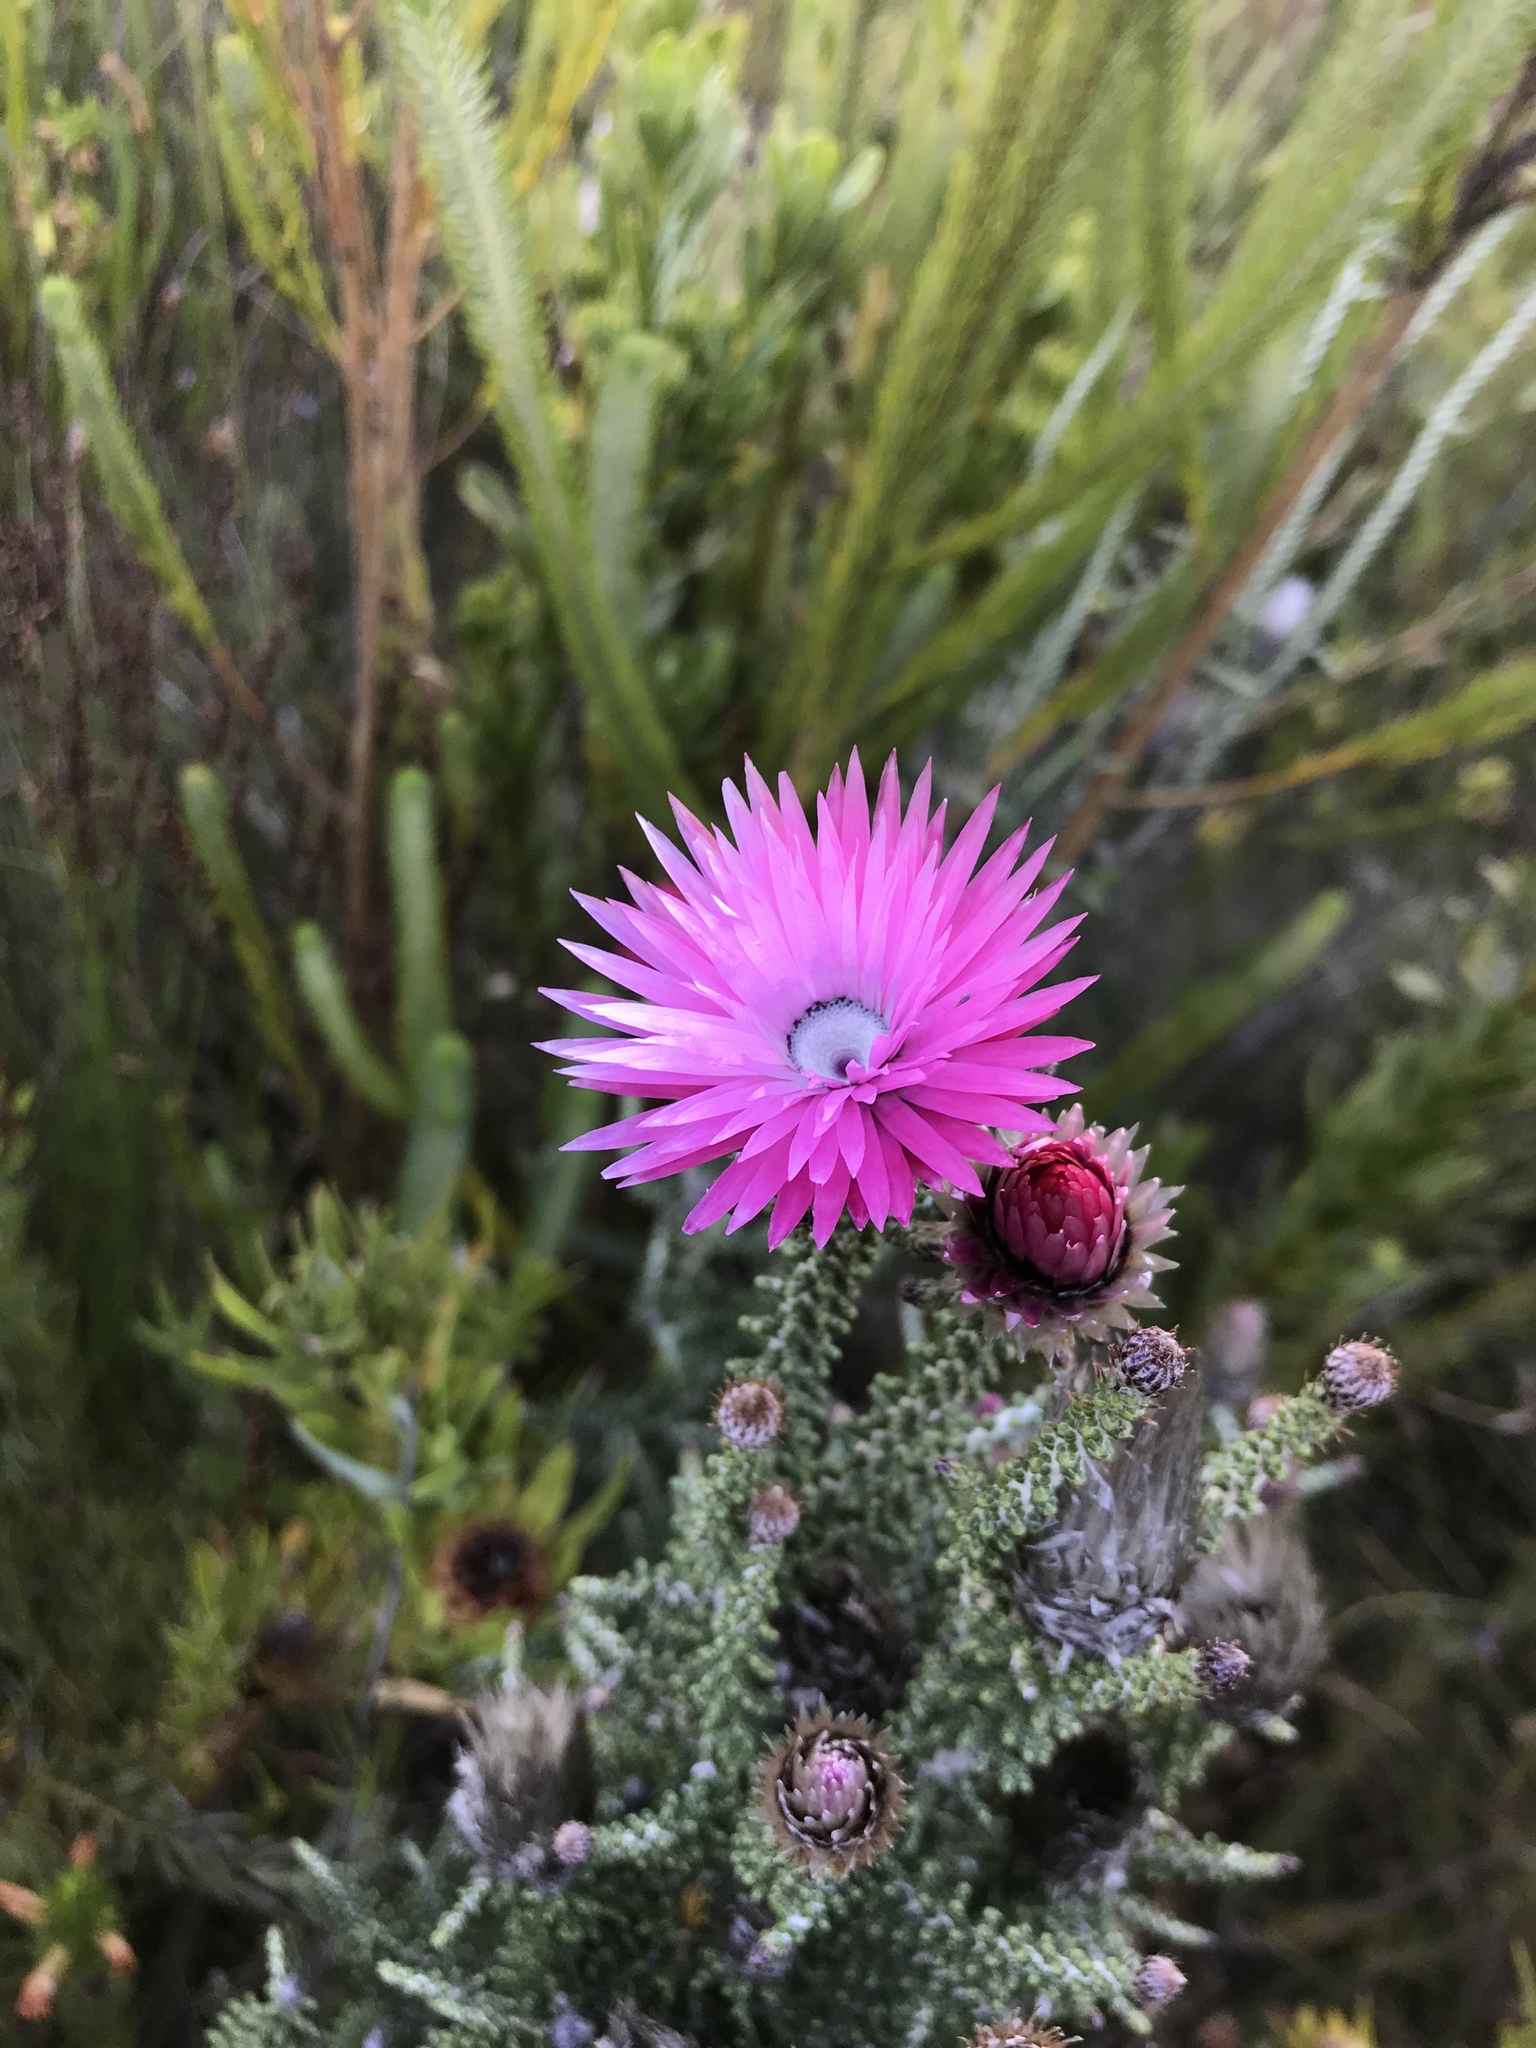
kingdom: Plantae
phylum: Tracheophyta
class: Magnoliopsida
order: Asterales
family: Asteraceae
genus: Phaenocoma
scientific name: Phaenocoma prolifera
